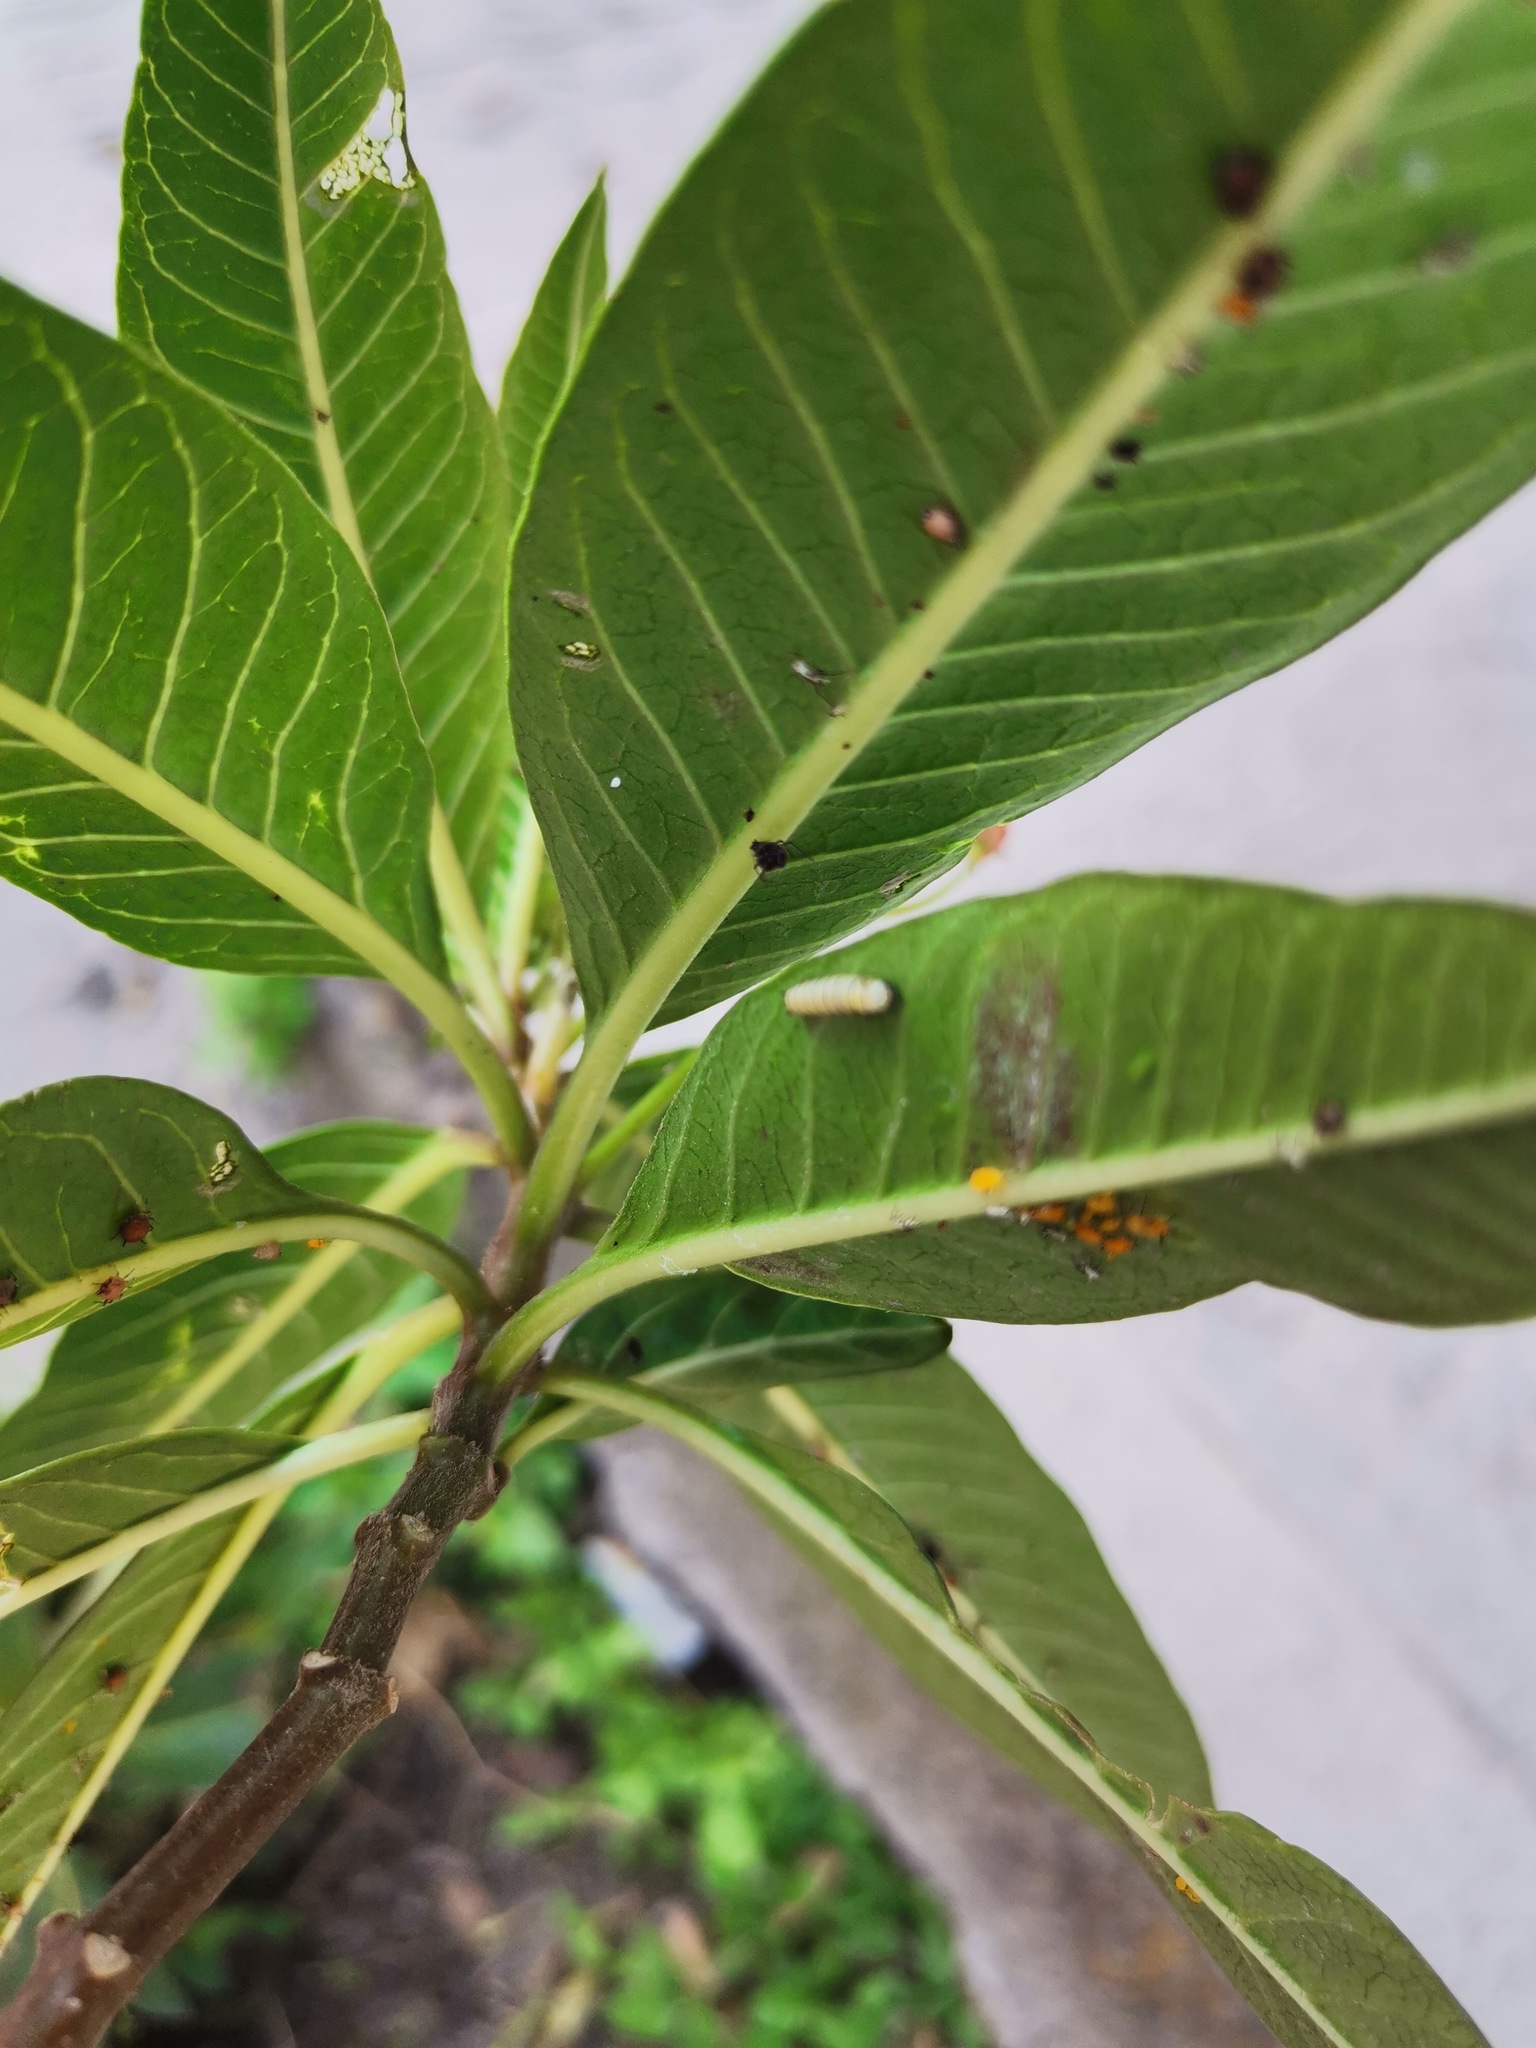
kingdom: Animalia
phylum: Arthropoda
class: Insecta
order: Lepidoptera
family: Nymphalidae
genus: Danaus
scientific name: Danaus plexippus
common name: Monarch
